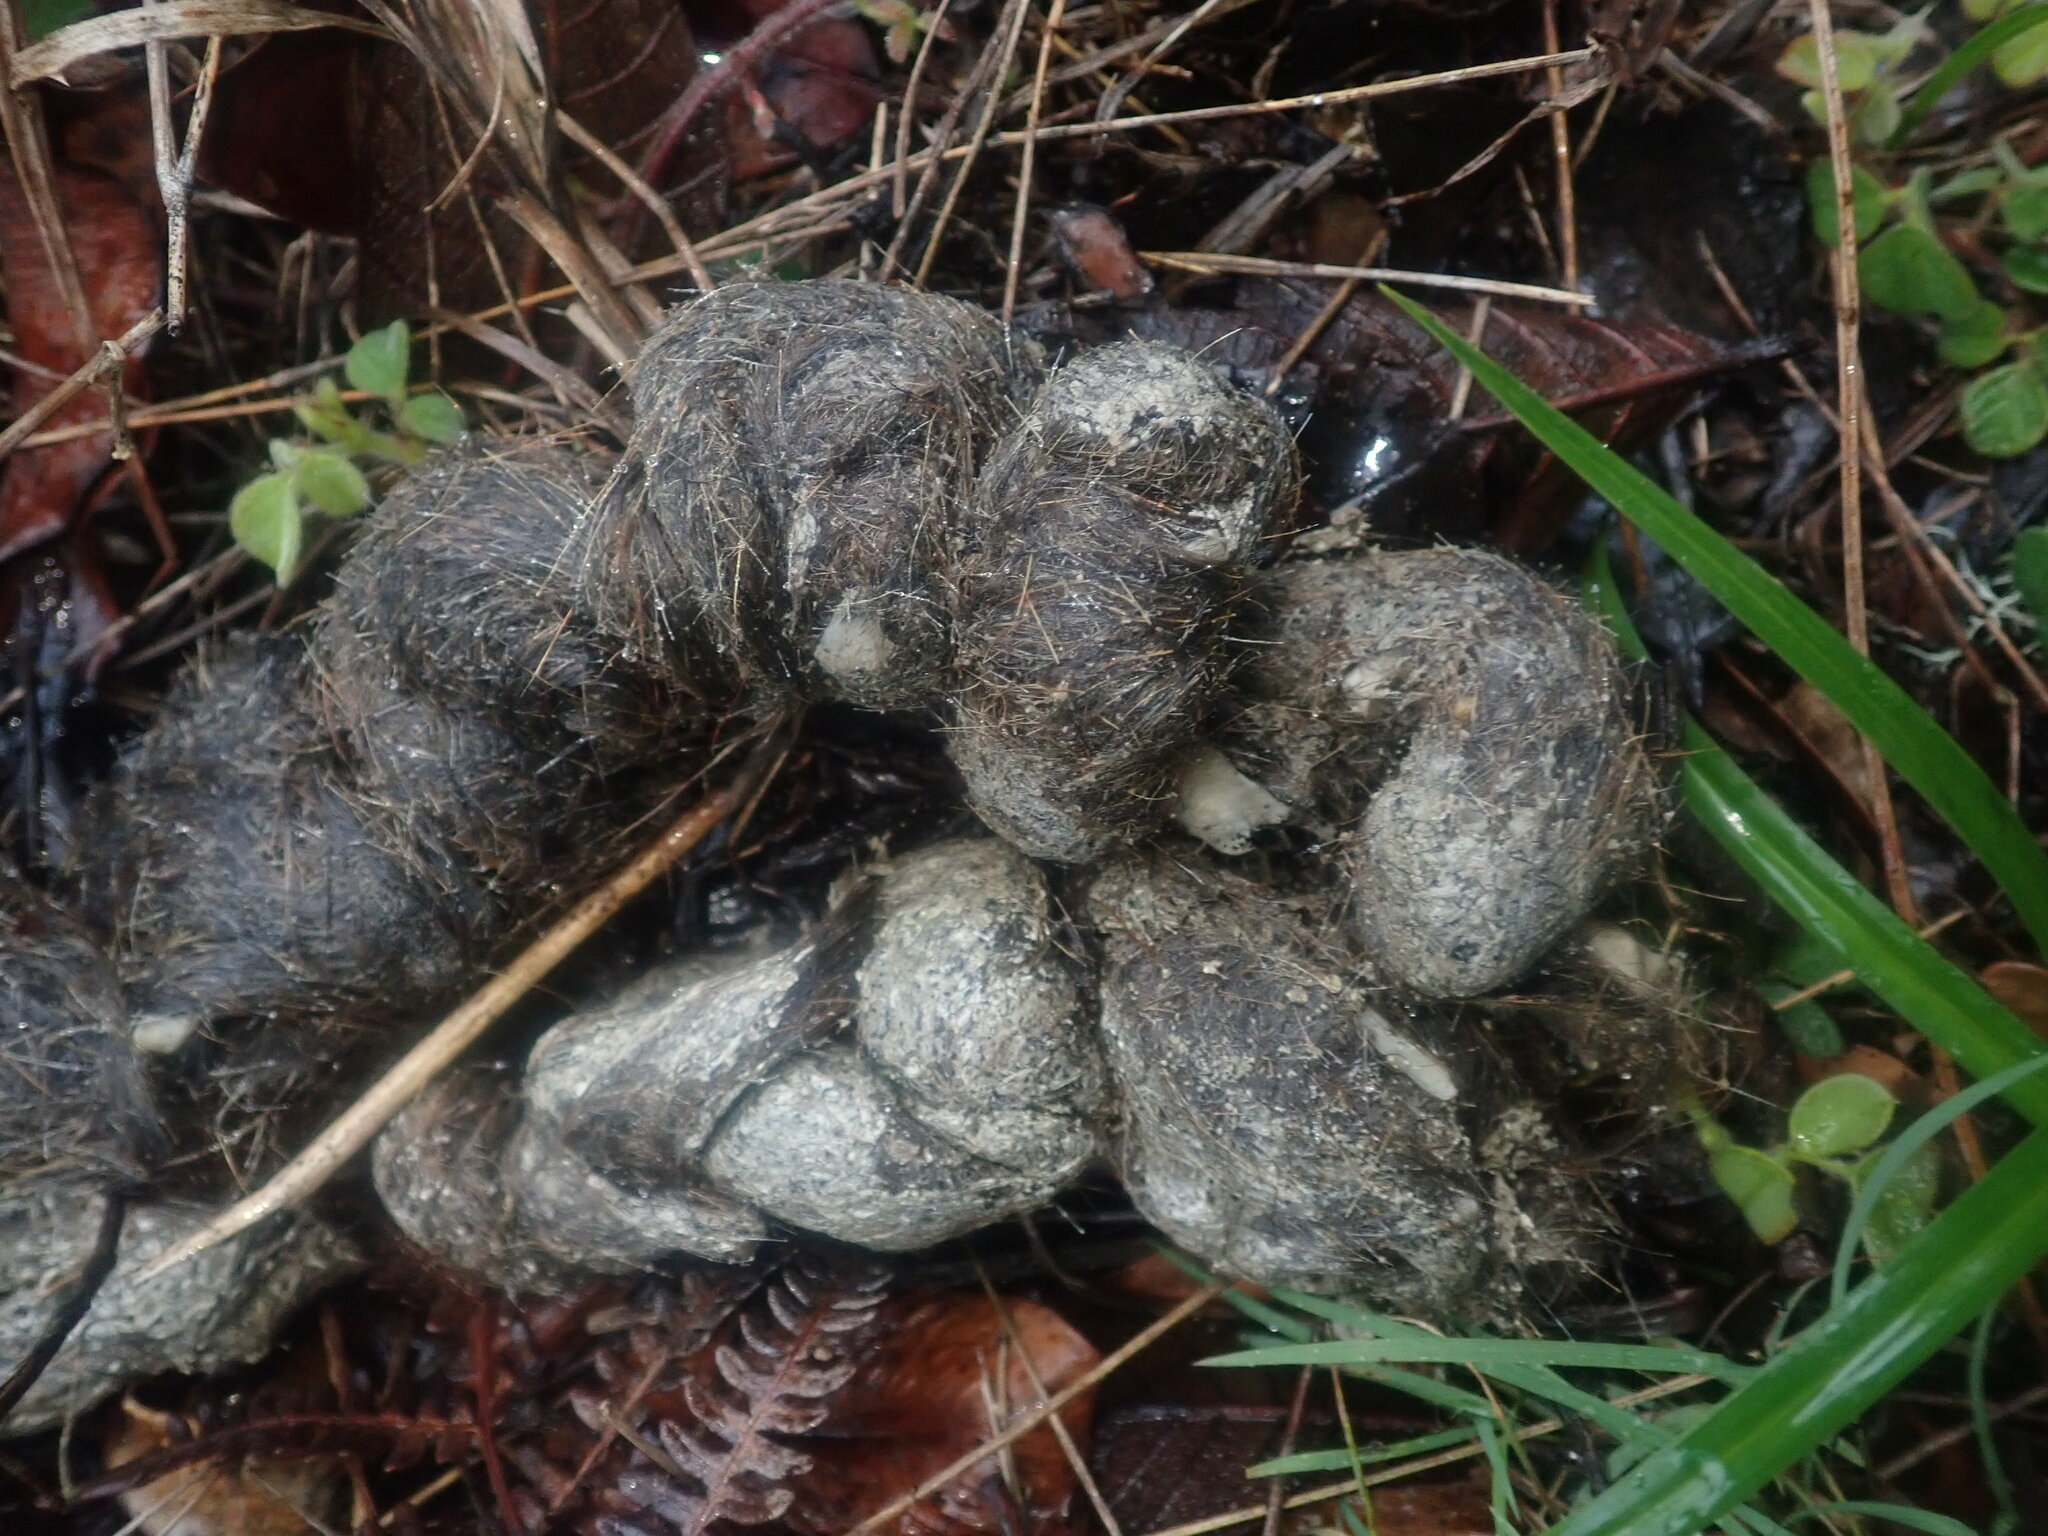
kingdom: Animalia
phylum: Chordata
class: Mammalia
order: Carnivora
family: Felidae
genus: Puma
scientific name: Puma concolor
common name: Puma
